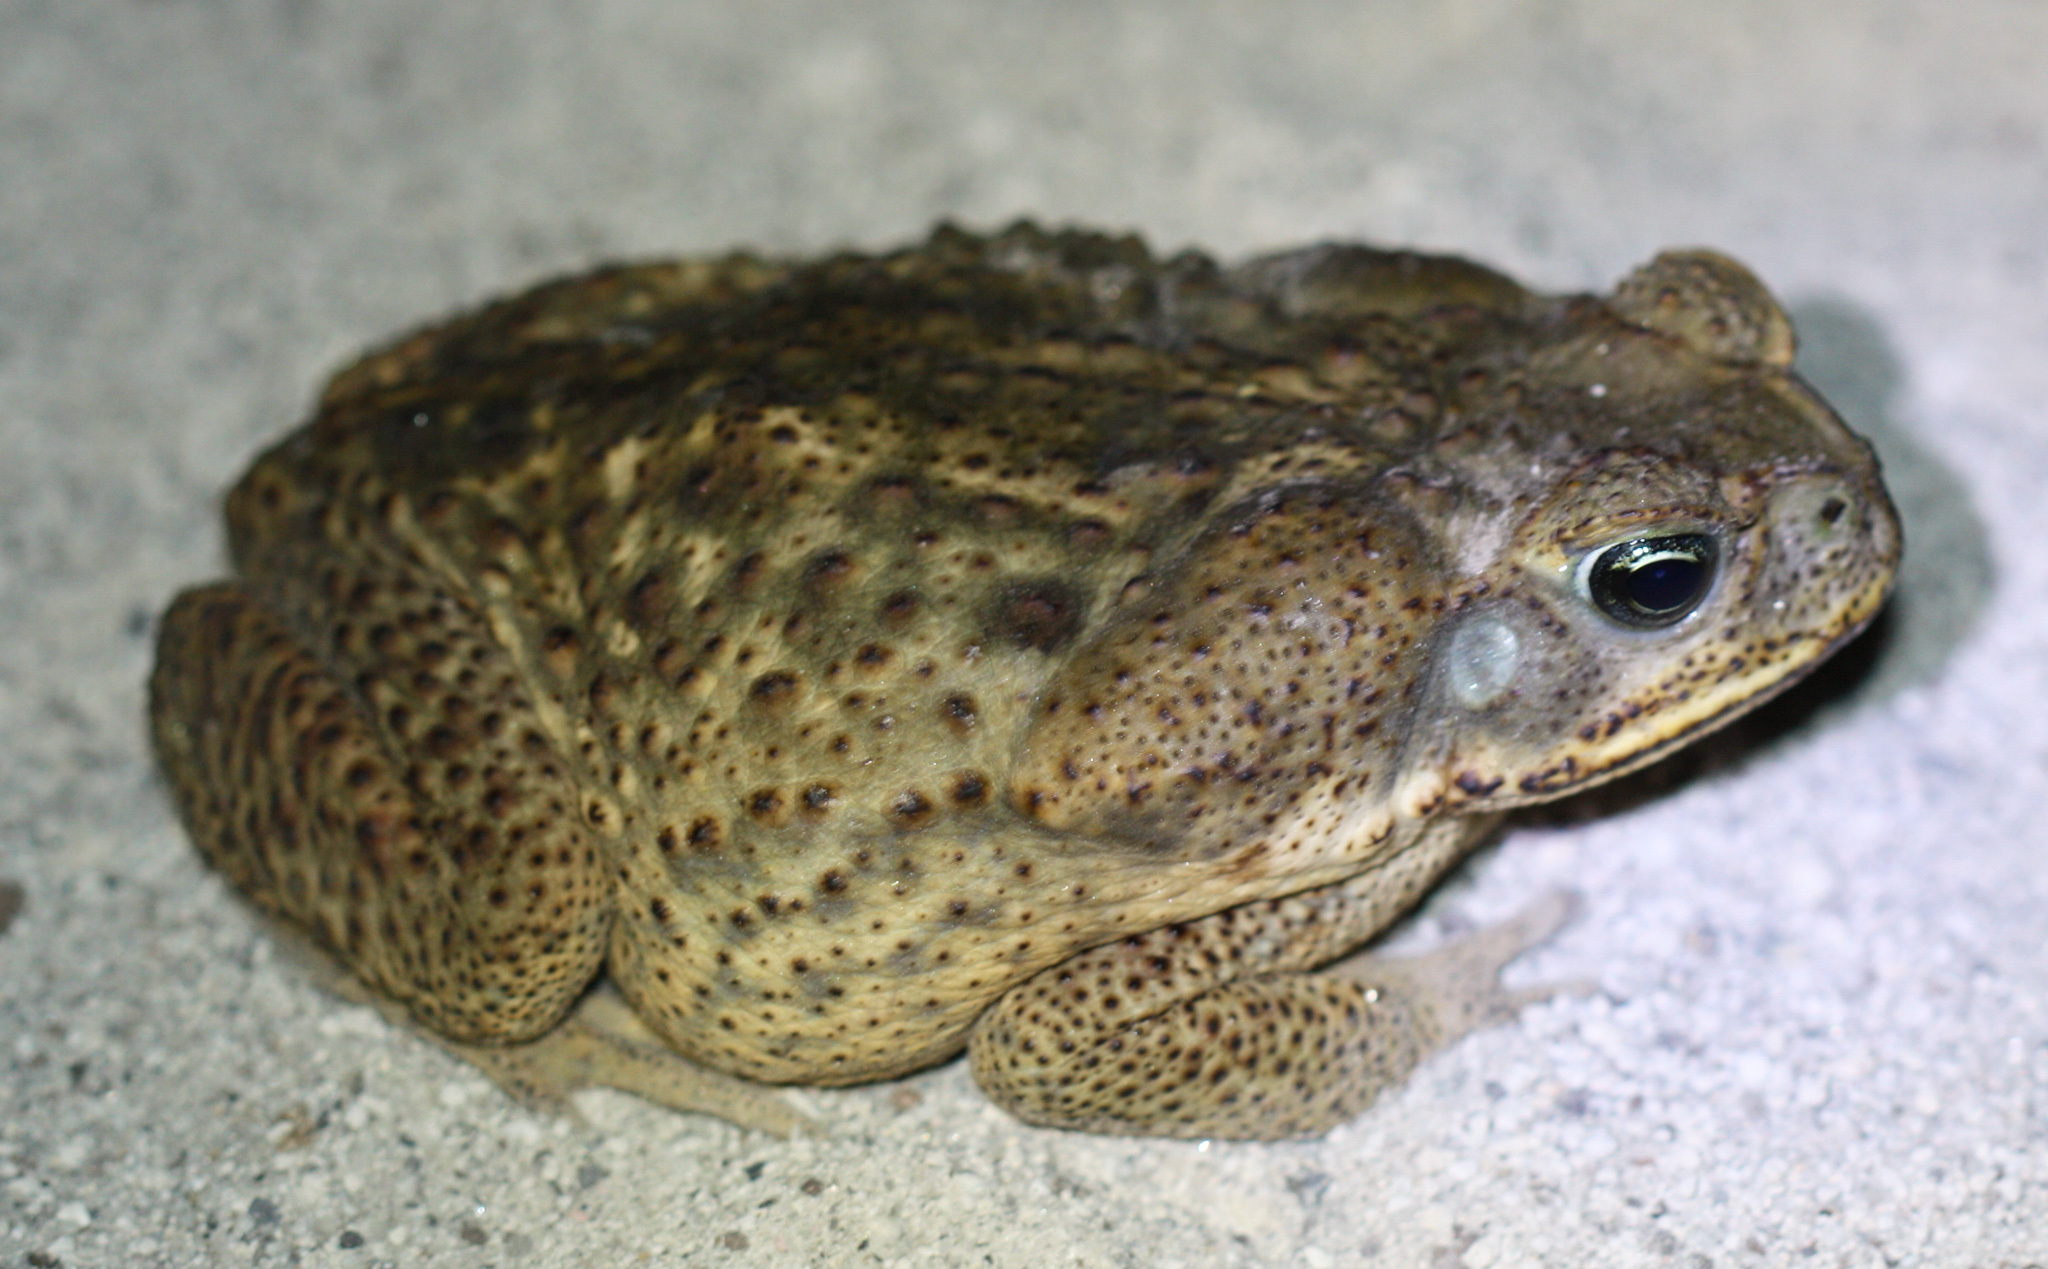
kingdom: Animalia
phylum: Chordata
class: Amphibia
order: Anura
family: Bufonidae
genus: Rhinella
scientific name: Rhinella horribilis
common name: Mesoamerican cane toad
